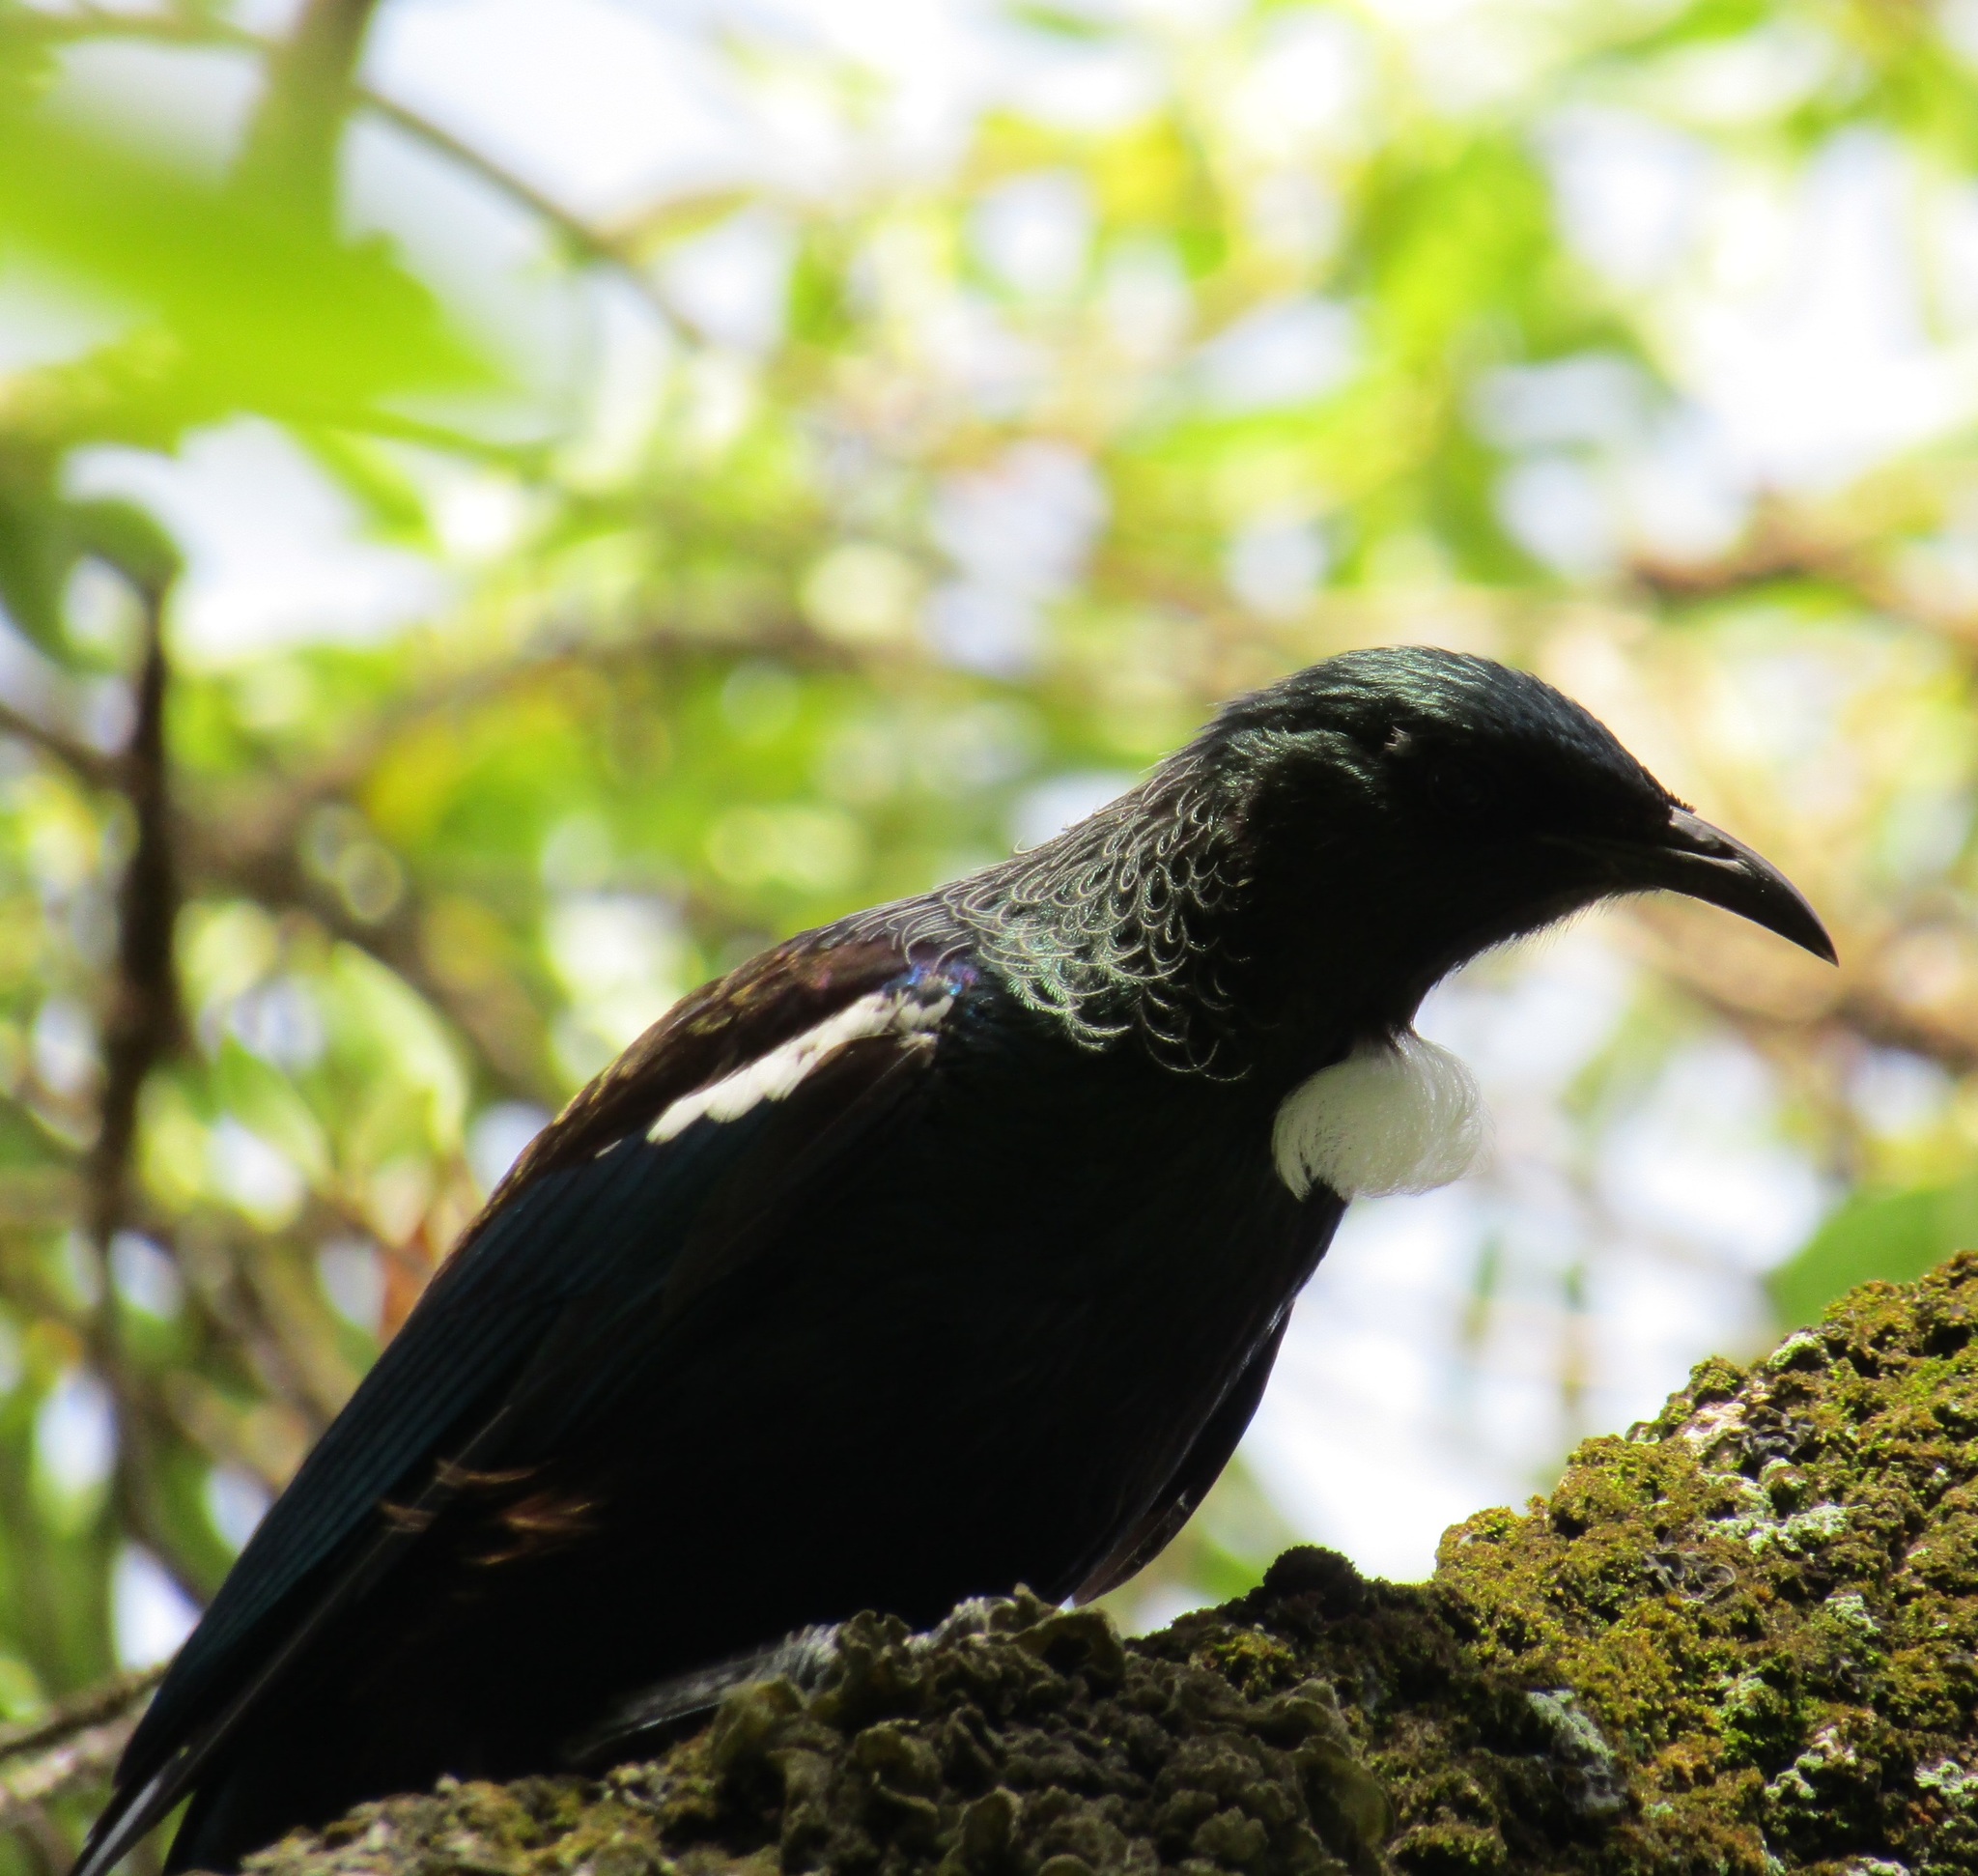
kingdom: Animalia
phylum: Chordata
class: Aves
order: Passeriformes
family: Meliphagidae
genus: Prosthemadera
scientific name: Prosthemadera novaeseelandiae
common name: Tui
